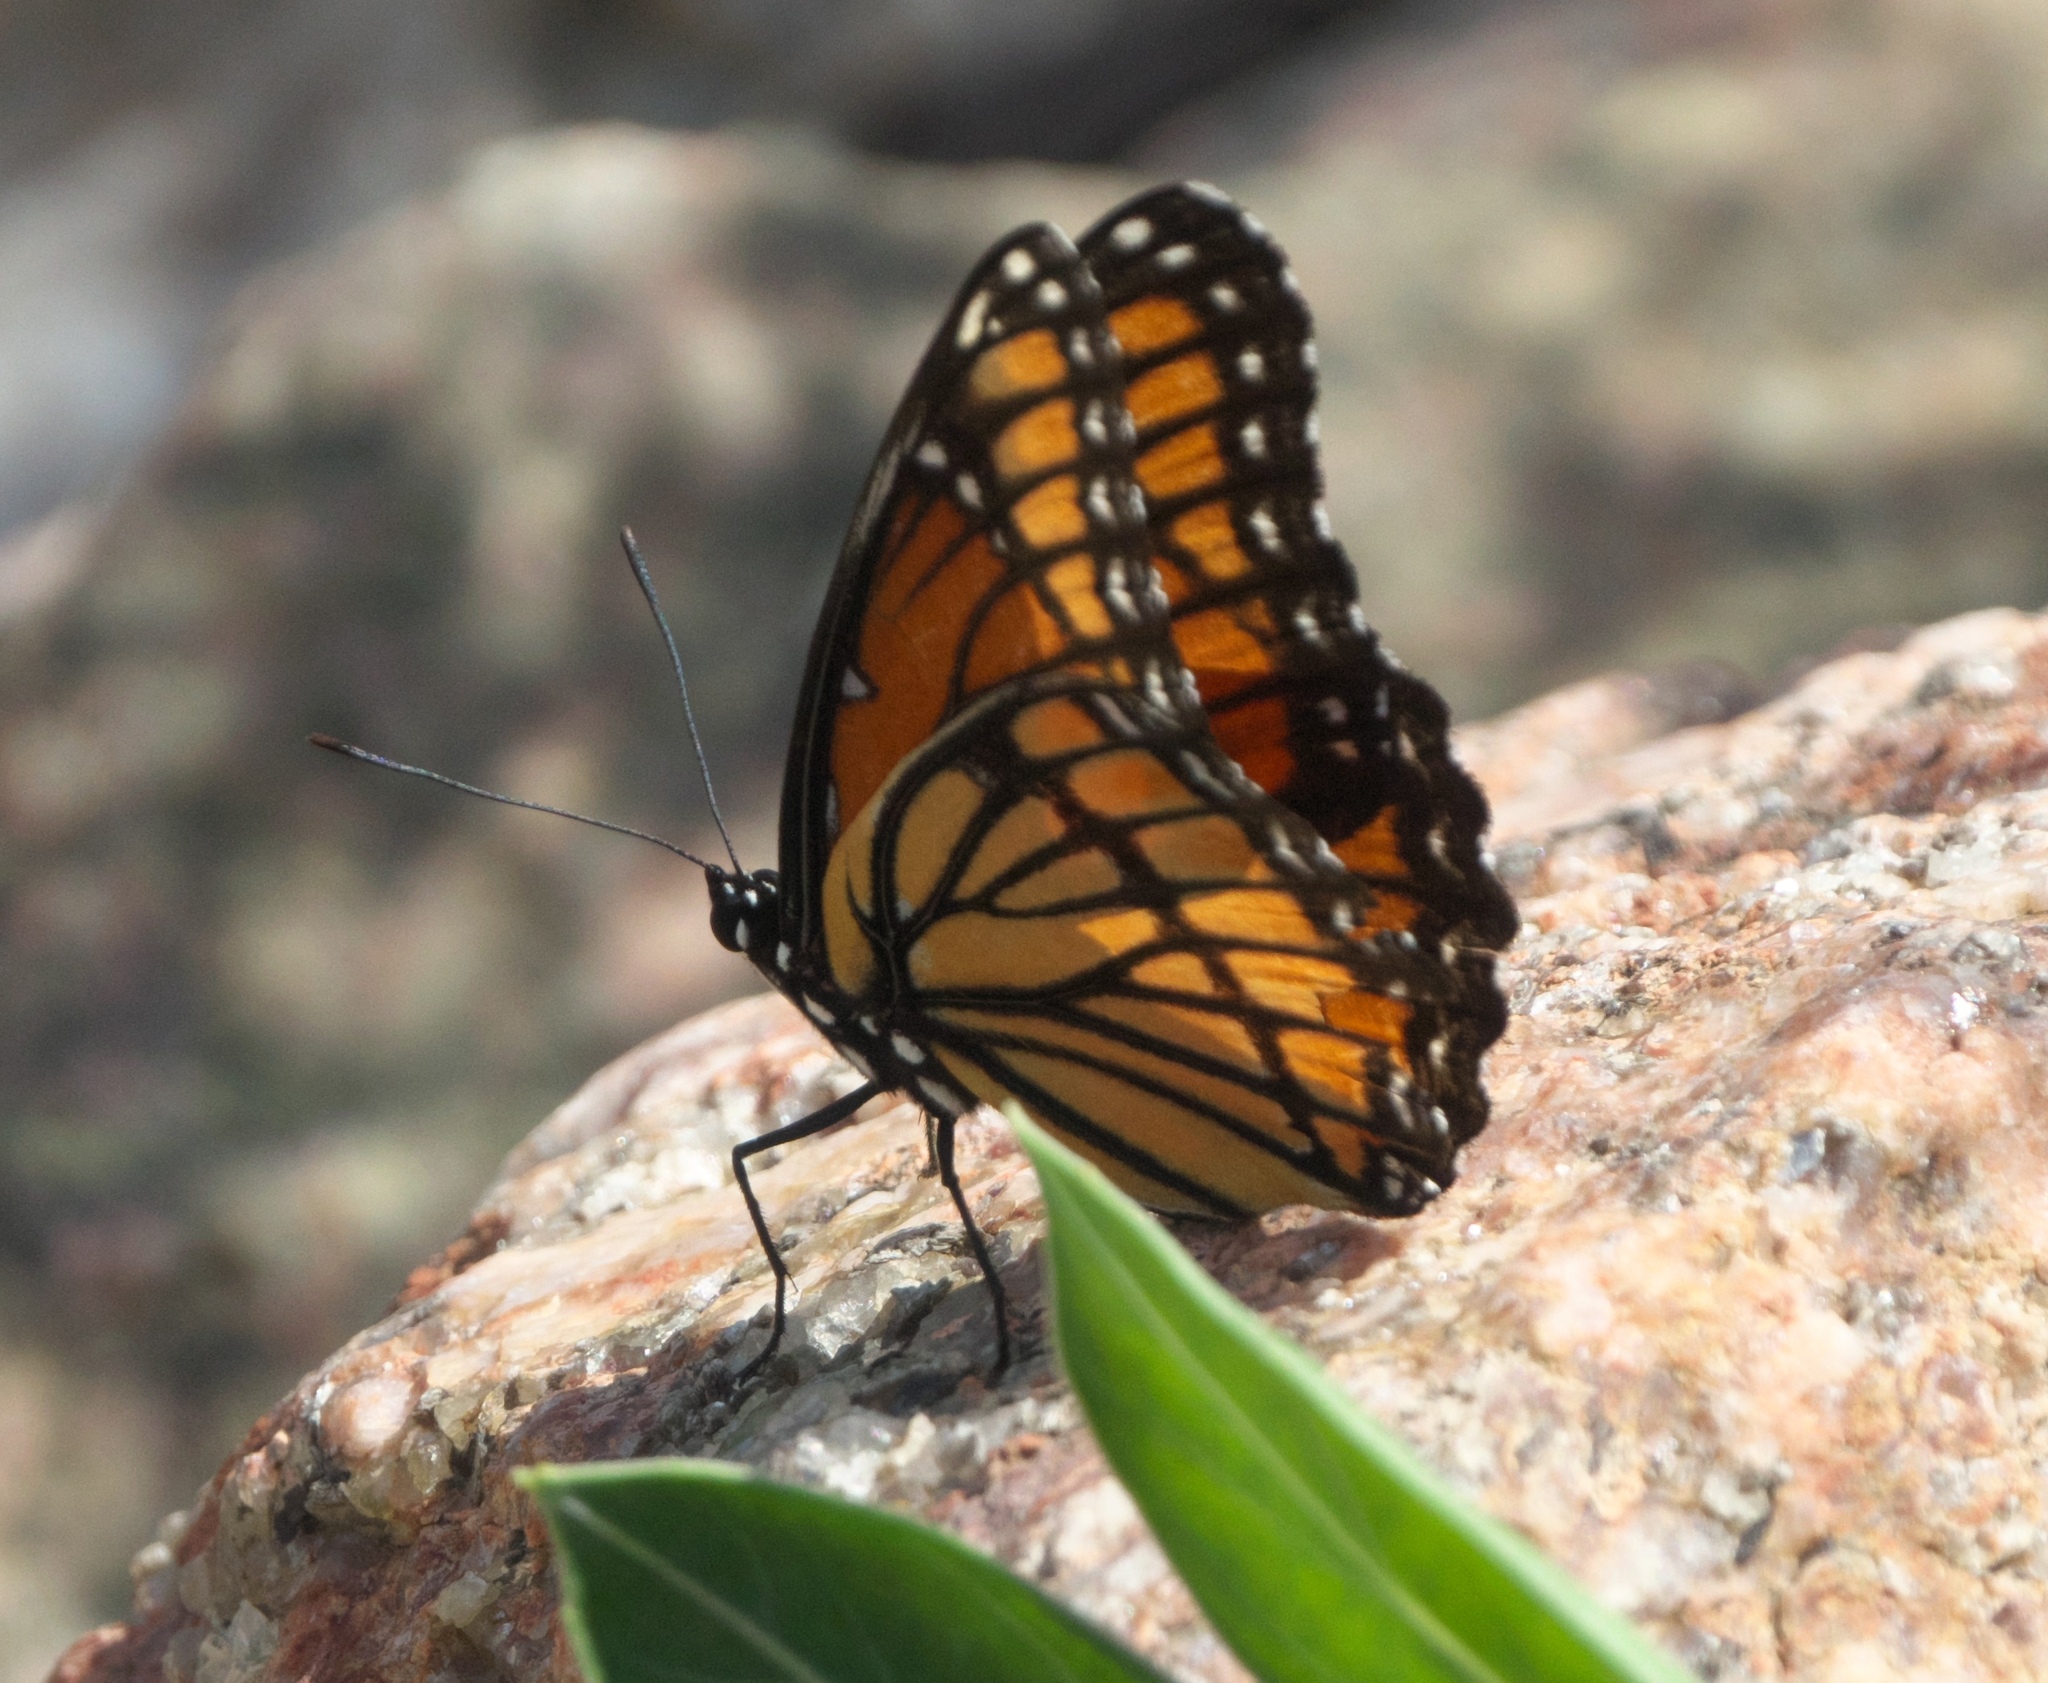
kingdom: Animalia
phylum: Arthropoda
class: Insecta
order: Lepidoptera
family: Nymphalidae
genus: Limenitis
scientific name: Limenitis archippus
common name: Viceroy
